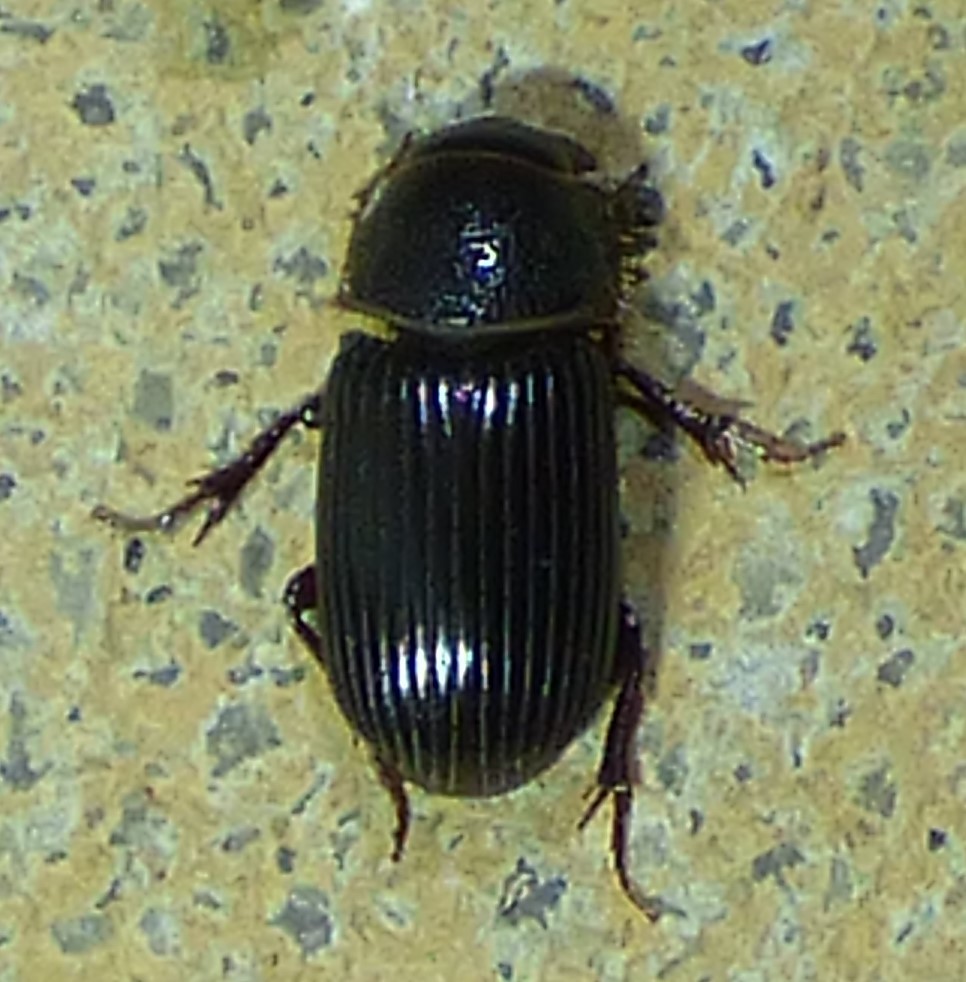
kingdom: Animalia
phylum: Arthropoda
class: Insecta
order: Coleoptera
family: Scarabaeidae
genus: Martineziana
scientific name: Martineziana dutertrei
